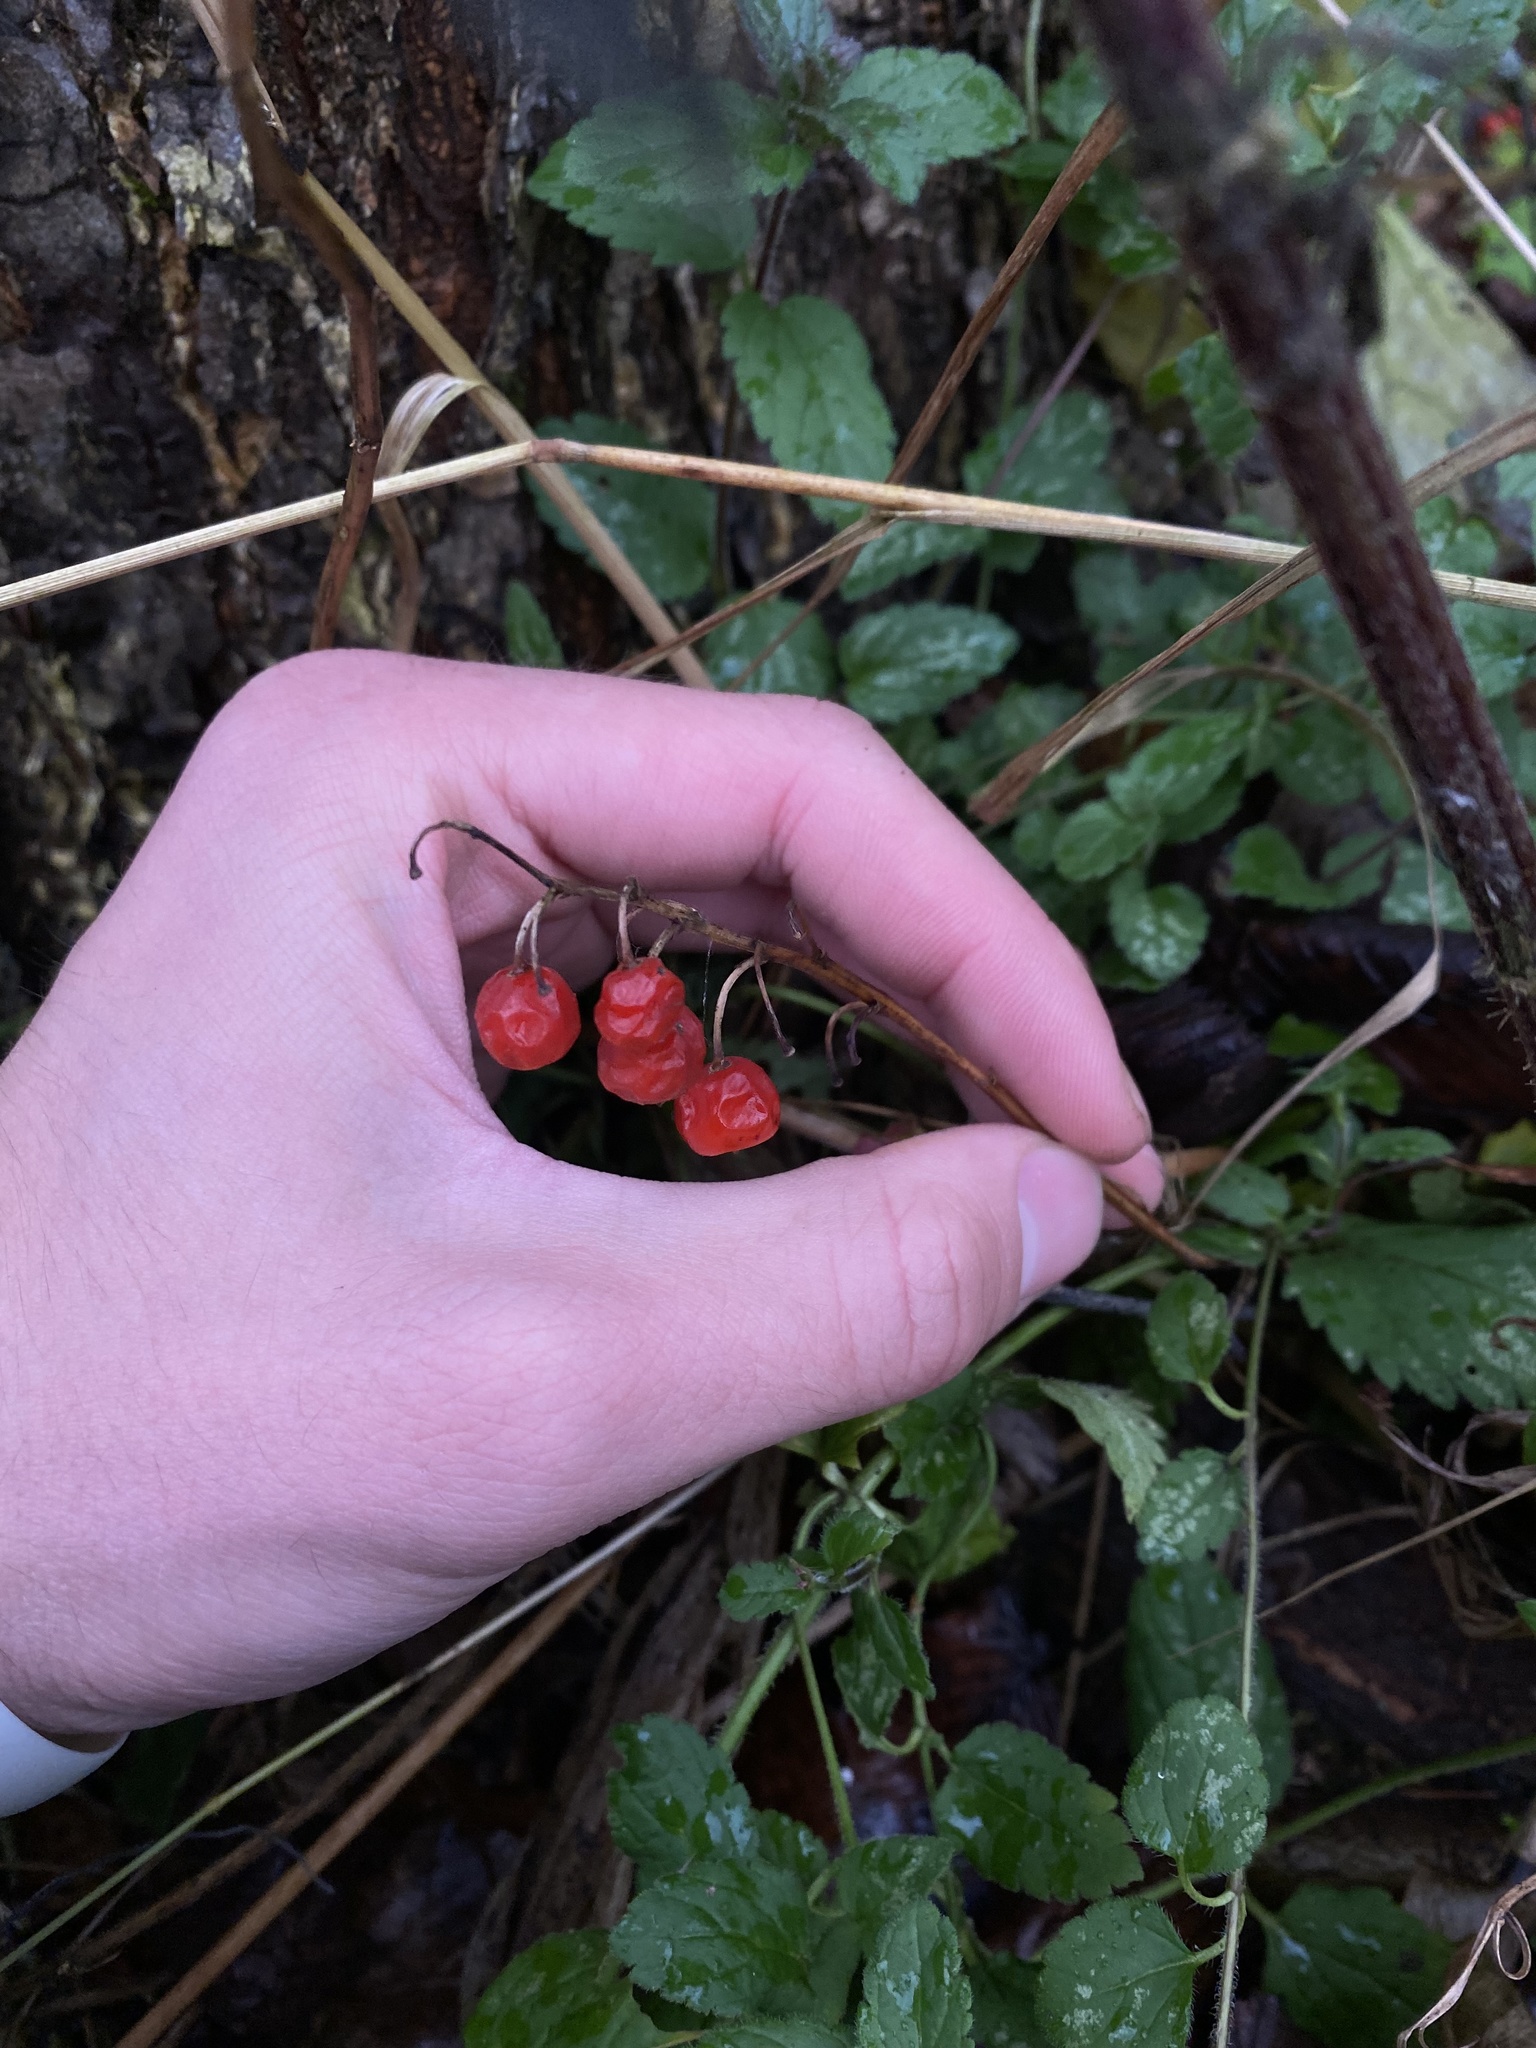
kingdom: Plantae
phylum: Tracheophyta
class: Liliopsida
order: Asparagales
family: Asparagaceae
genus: Convallaria
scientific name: Convallaria majalis
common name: Lily-of-the-valley
